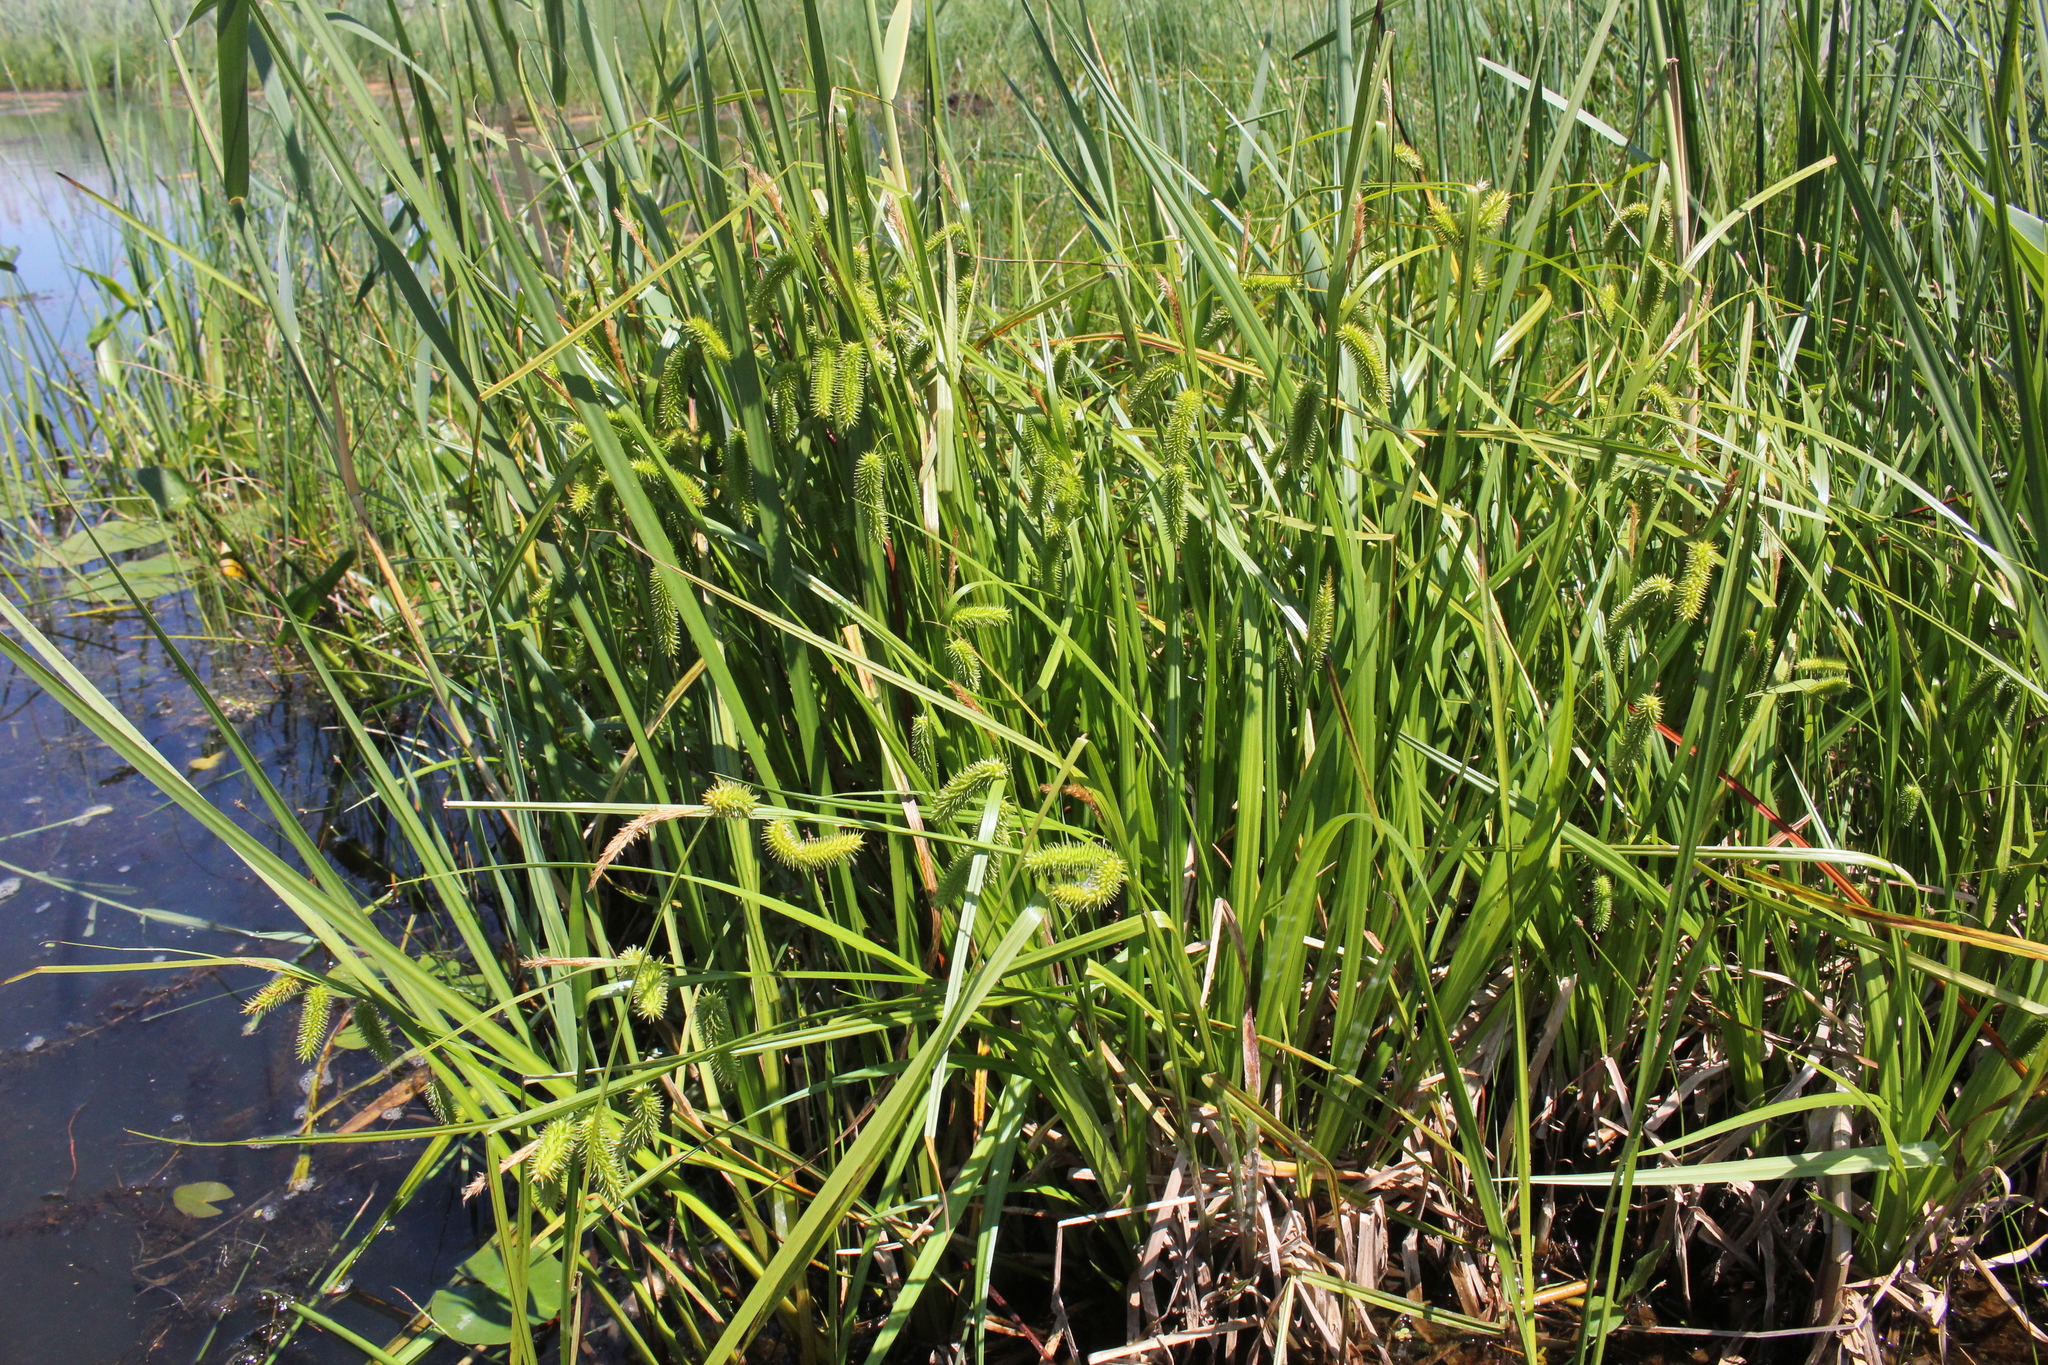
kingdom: Plantae
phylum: Tracheophyta
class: Liliopsida
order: Poales
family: Cyperaceae
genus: Carex
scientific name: Carex pseudocyperus
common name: Cyperus sedge
